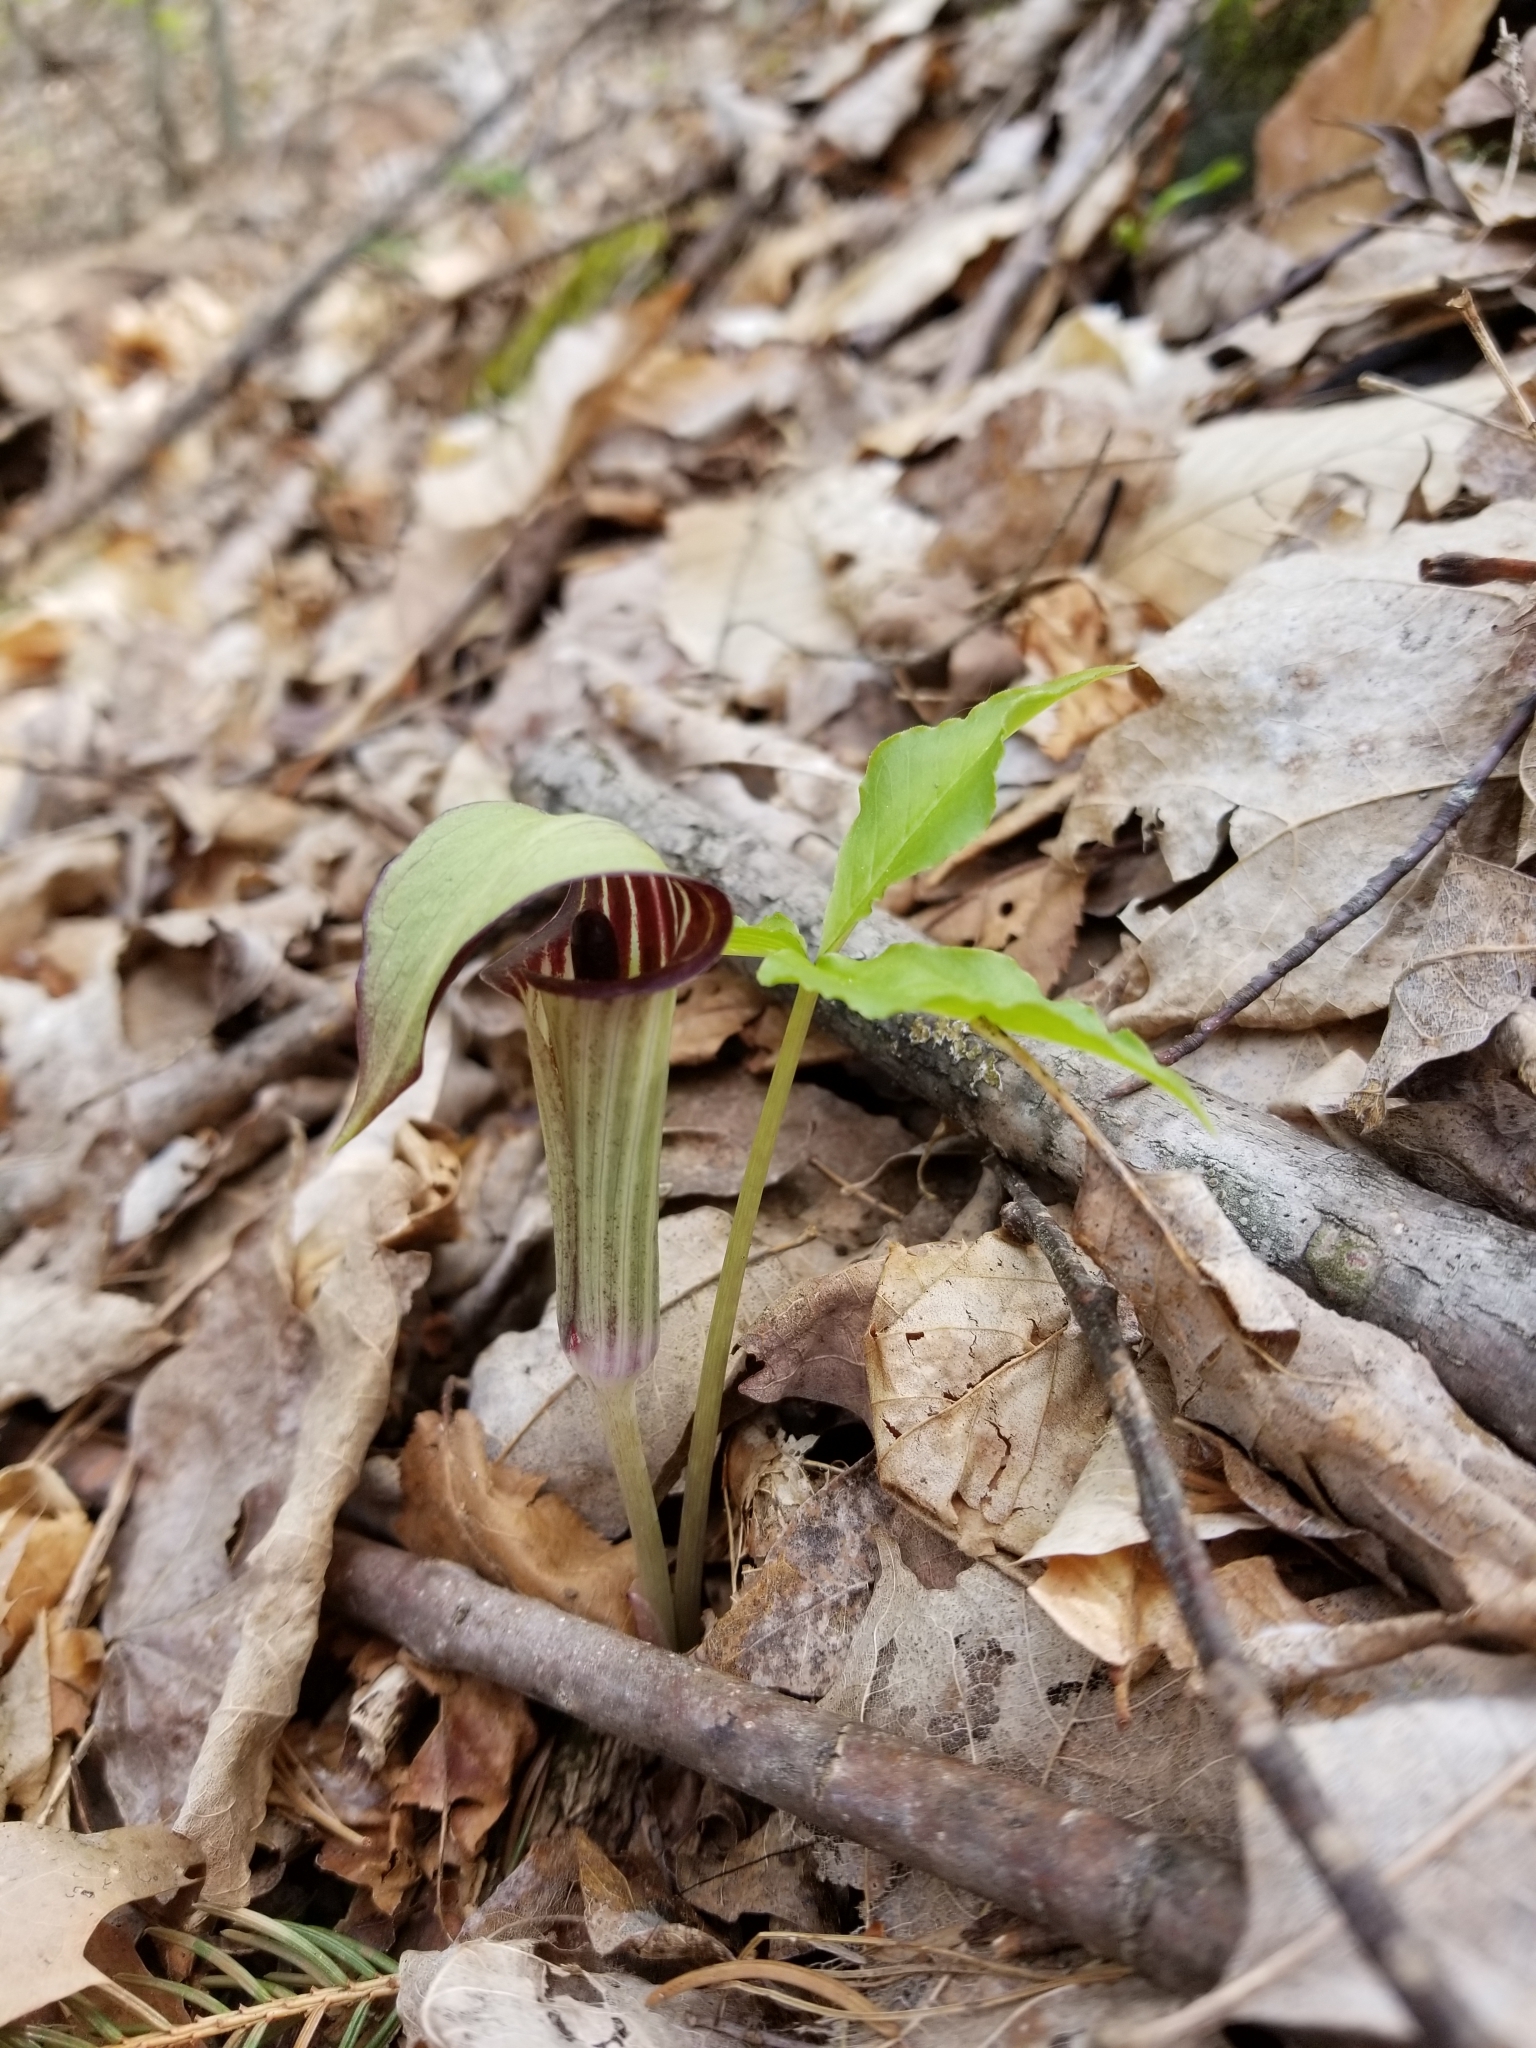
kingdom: Plantae
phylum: Tracheophyta
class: Liliopsida
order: Alismatales
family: Araceae
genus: Arisaema
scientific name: Arisaema triphyllum
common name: Jack-in-the-pulpit
